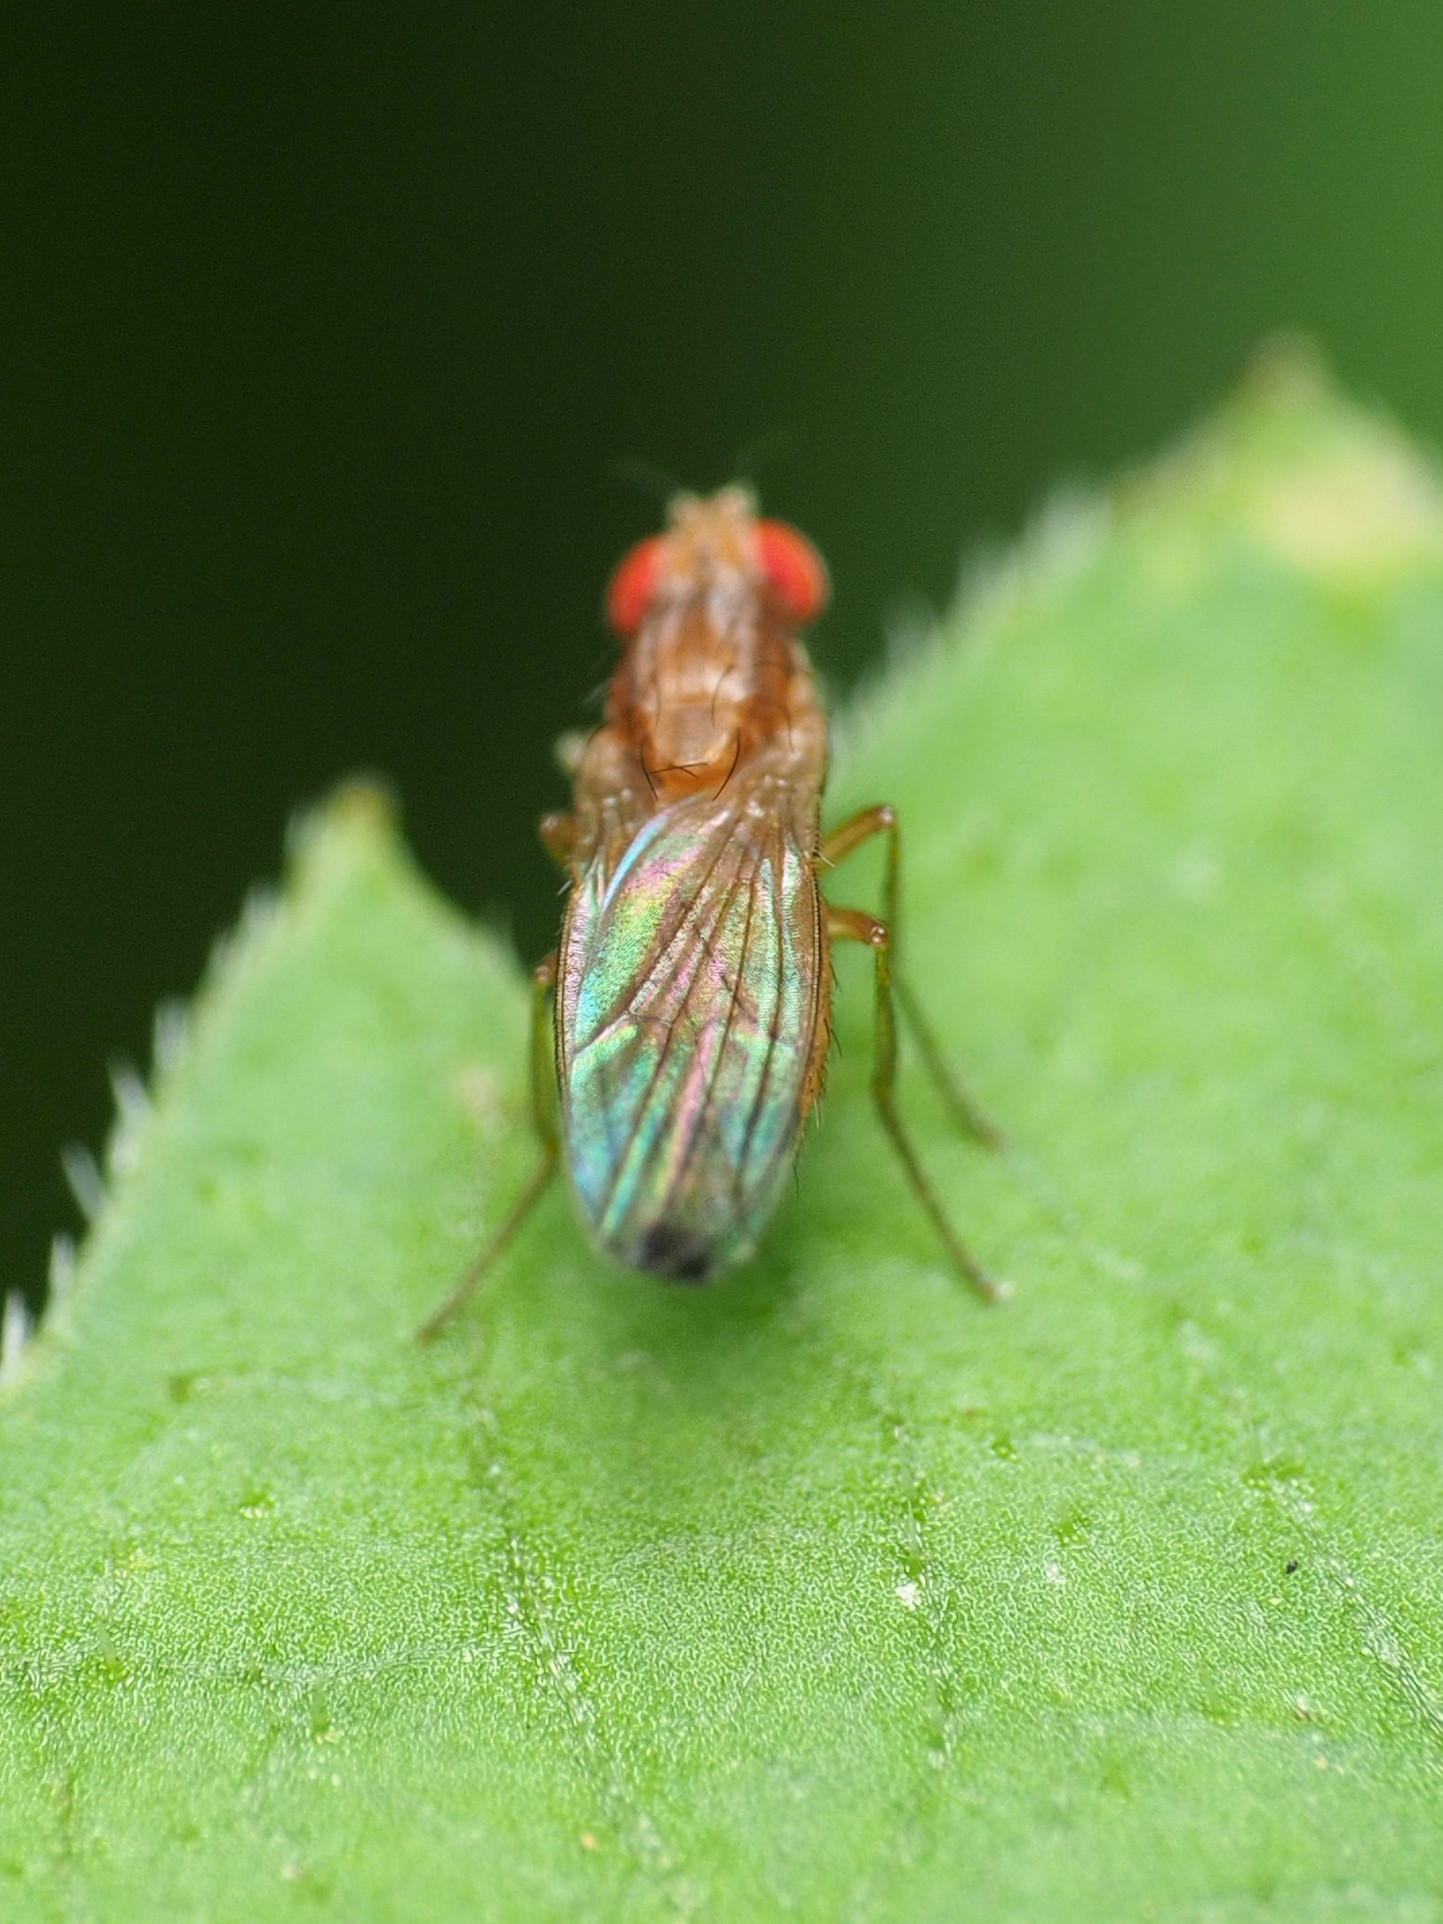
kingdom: Animalia
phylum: Arthropoda
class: Insecta
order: Diptera
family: Drosophilidae
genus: Scaptomyza
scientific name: Scaptomyza adusta
